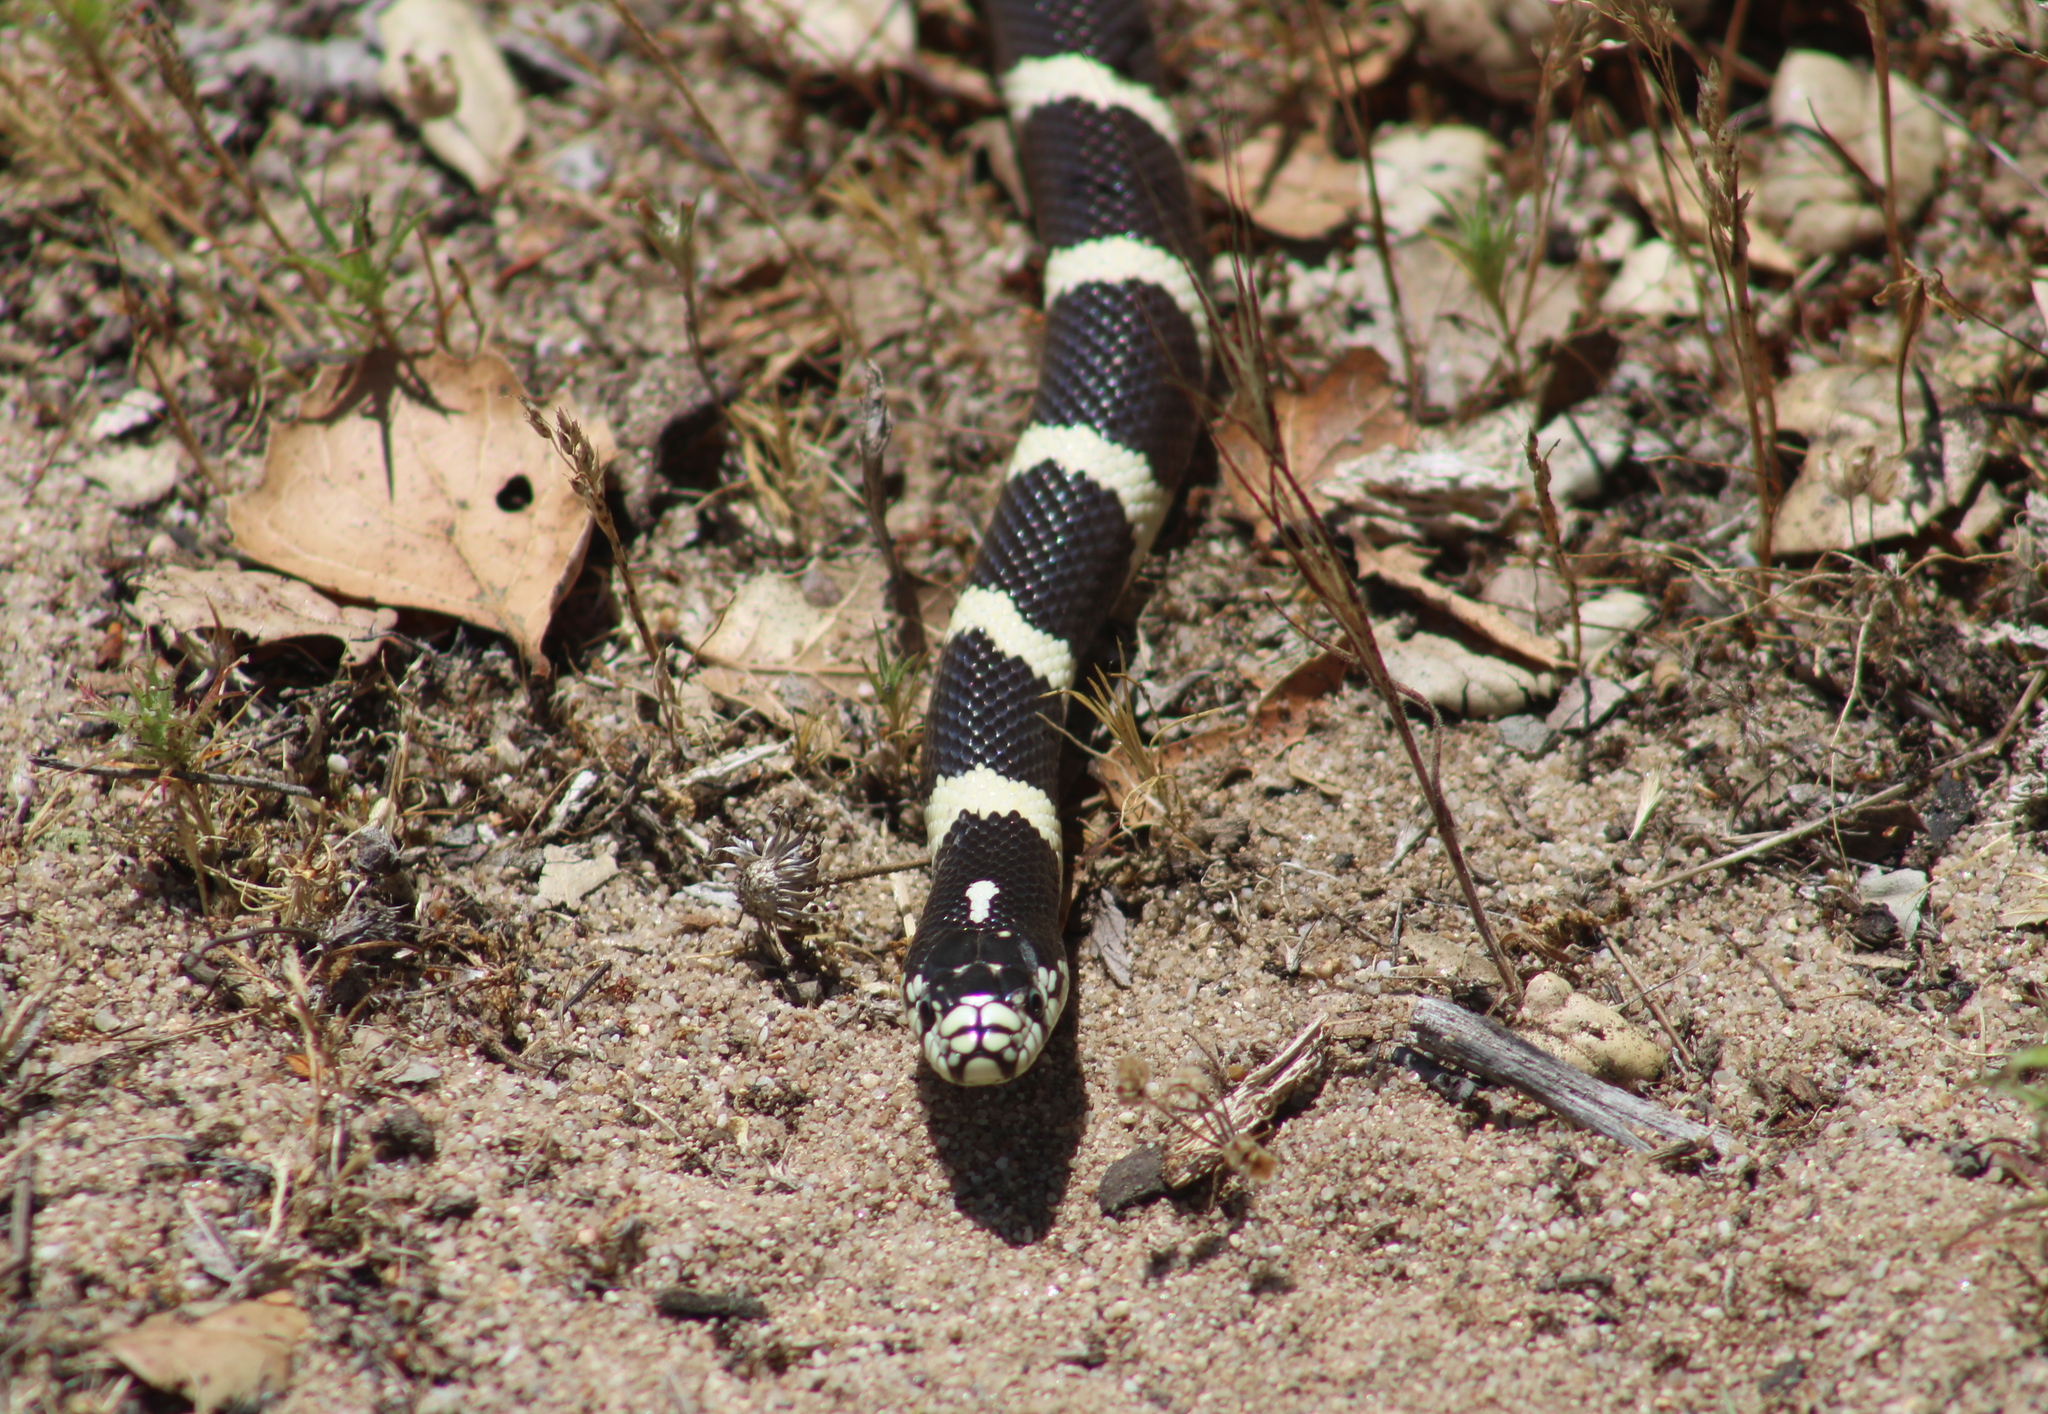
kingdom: Animalia
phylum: Chordata
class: Squamata
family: Colubridae
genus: Lampropeltis
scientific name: Lampropeltis californiae
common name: California kingsnake
